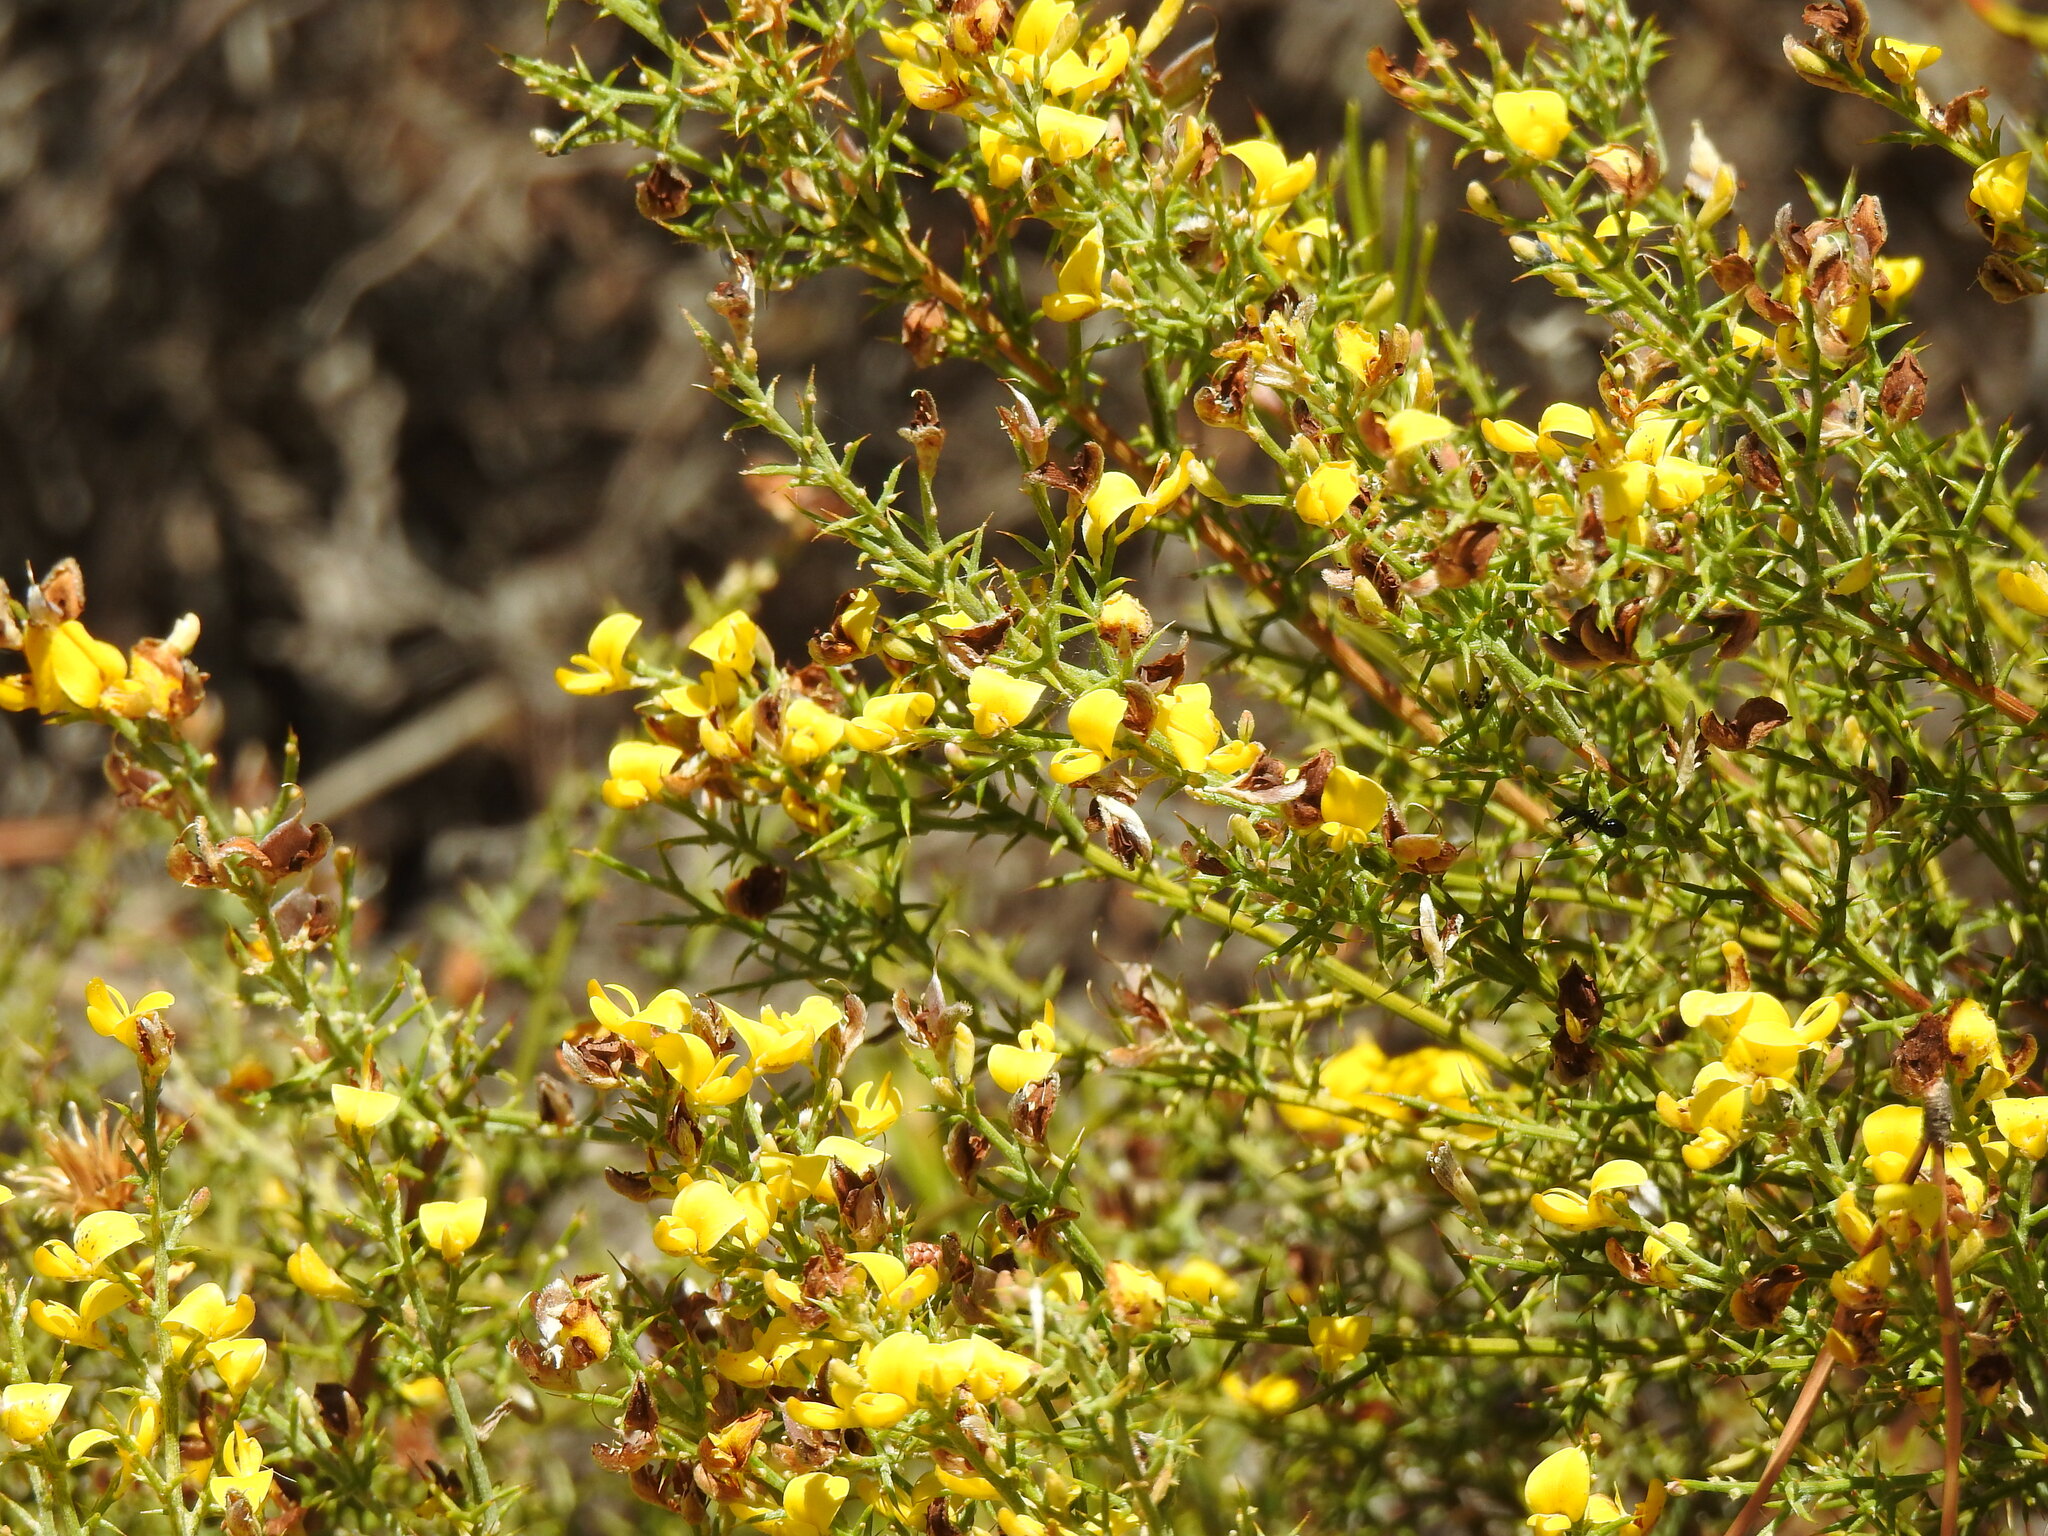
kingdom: Plantae
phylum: Tracheophyta
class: Magnoliopsida
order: Fabales
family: Fabaceae
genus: Stauracanthus
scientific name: Stauracanthus boivinii
